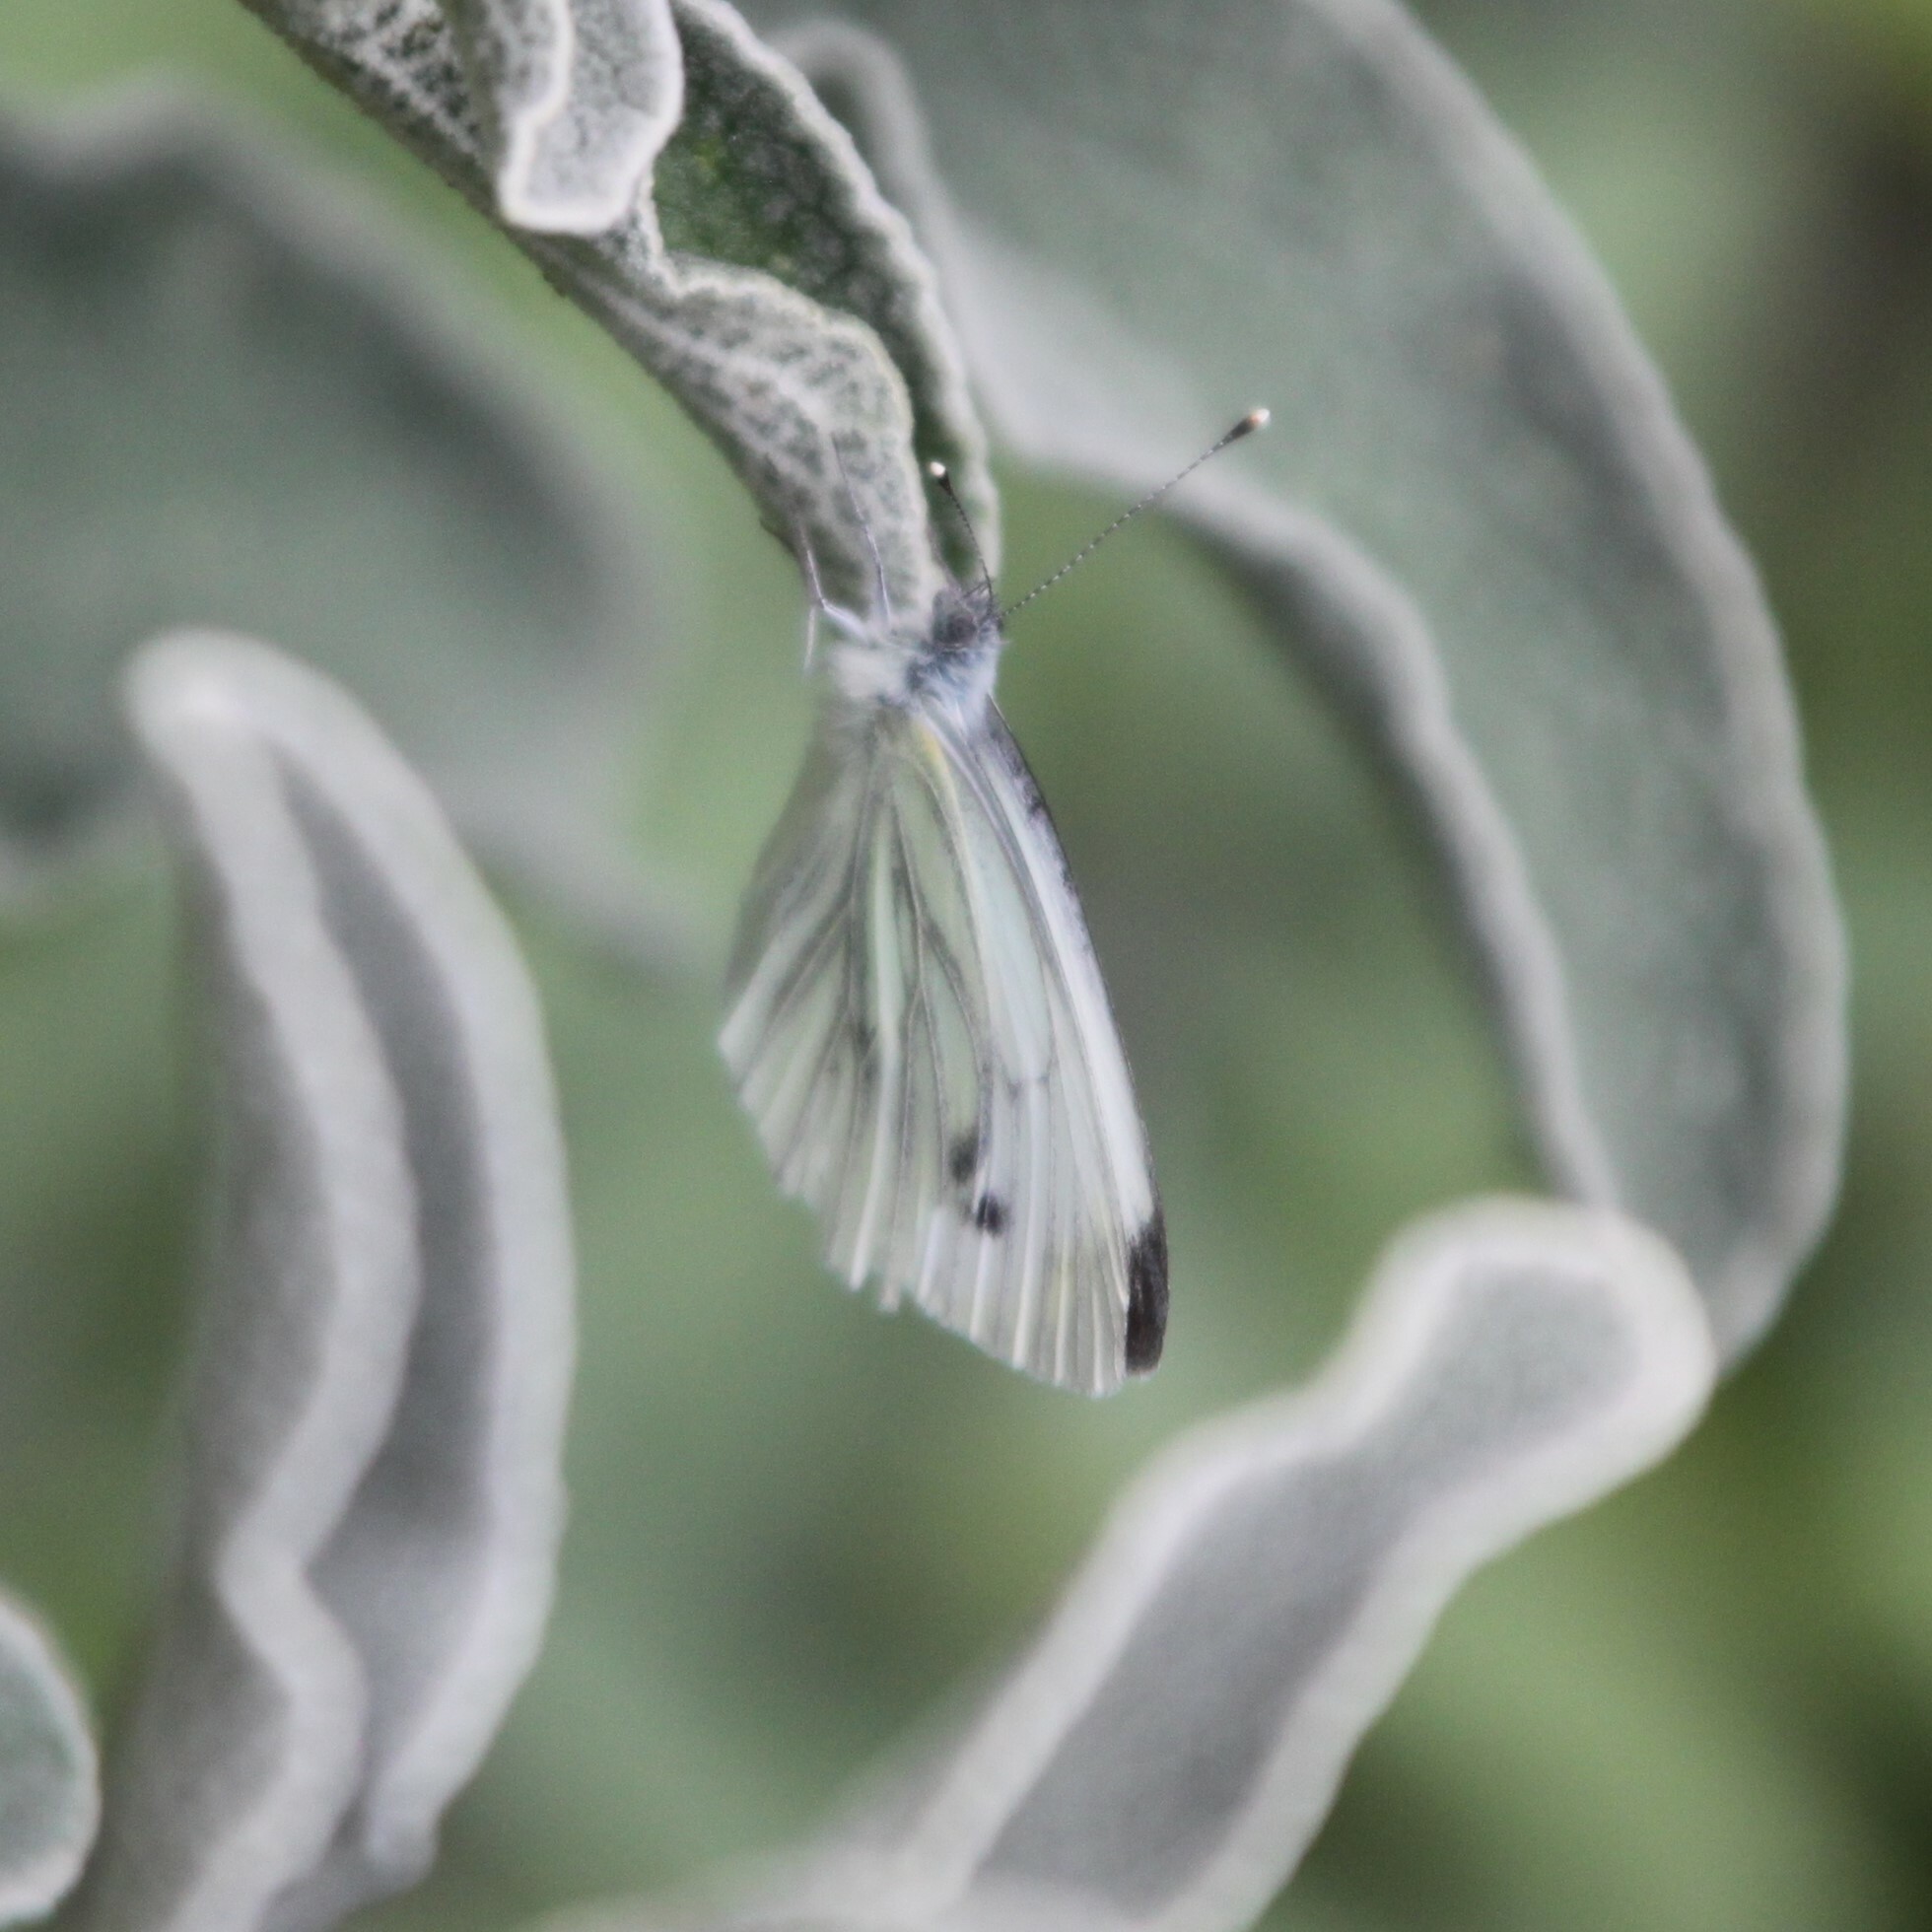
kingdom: Animalia
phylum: Arthropoda
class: Insecta
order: Lepidoptera
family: Pieridae
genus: Pieris
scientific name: Pieris napi
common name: Green-veined white
